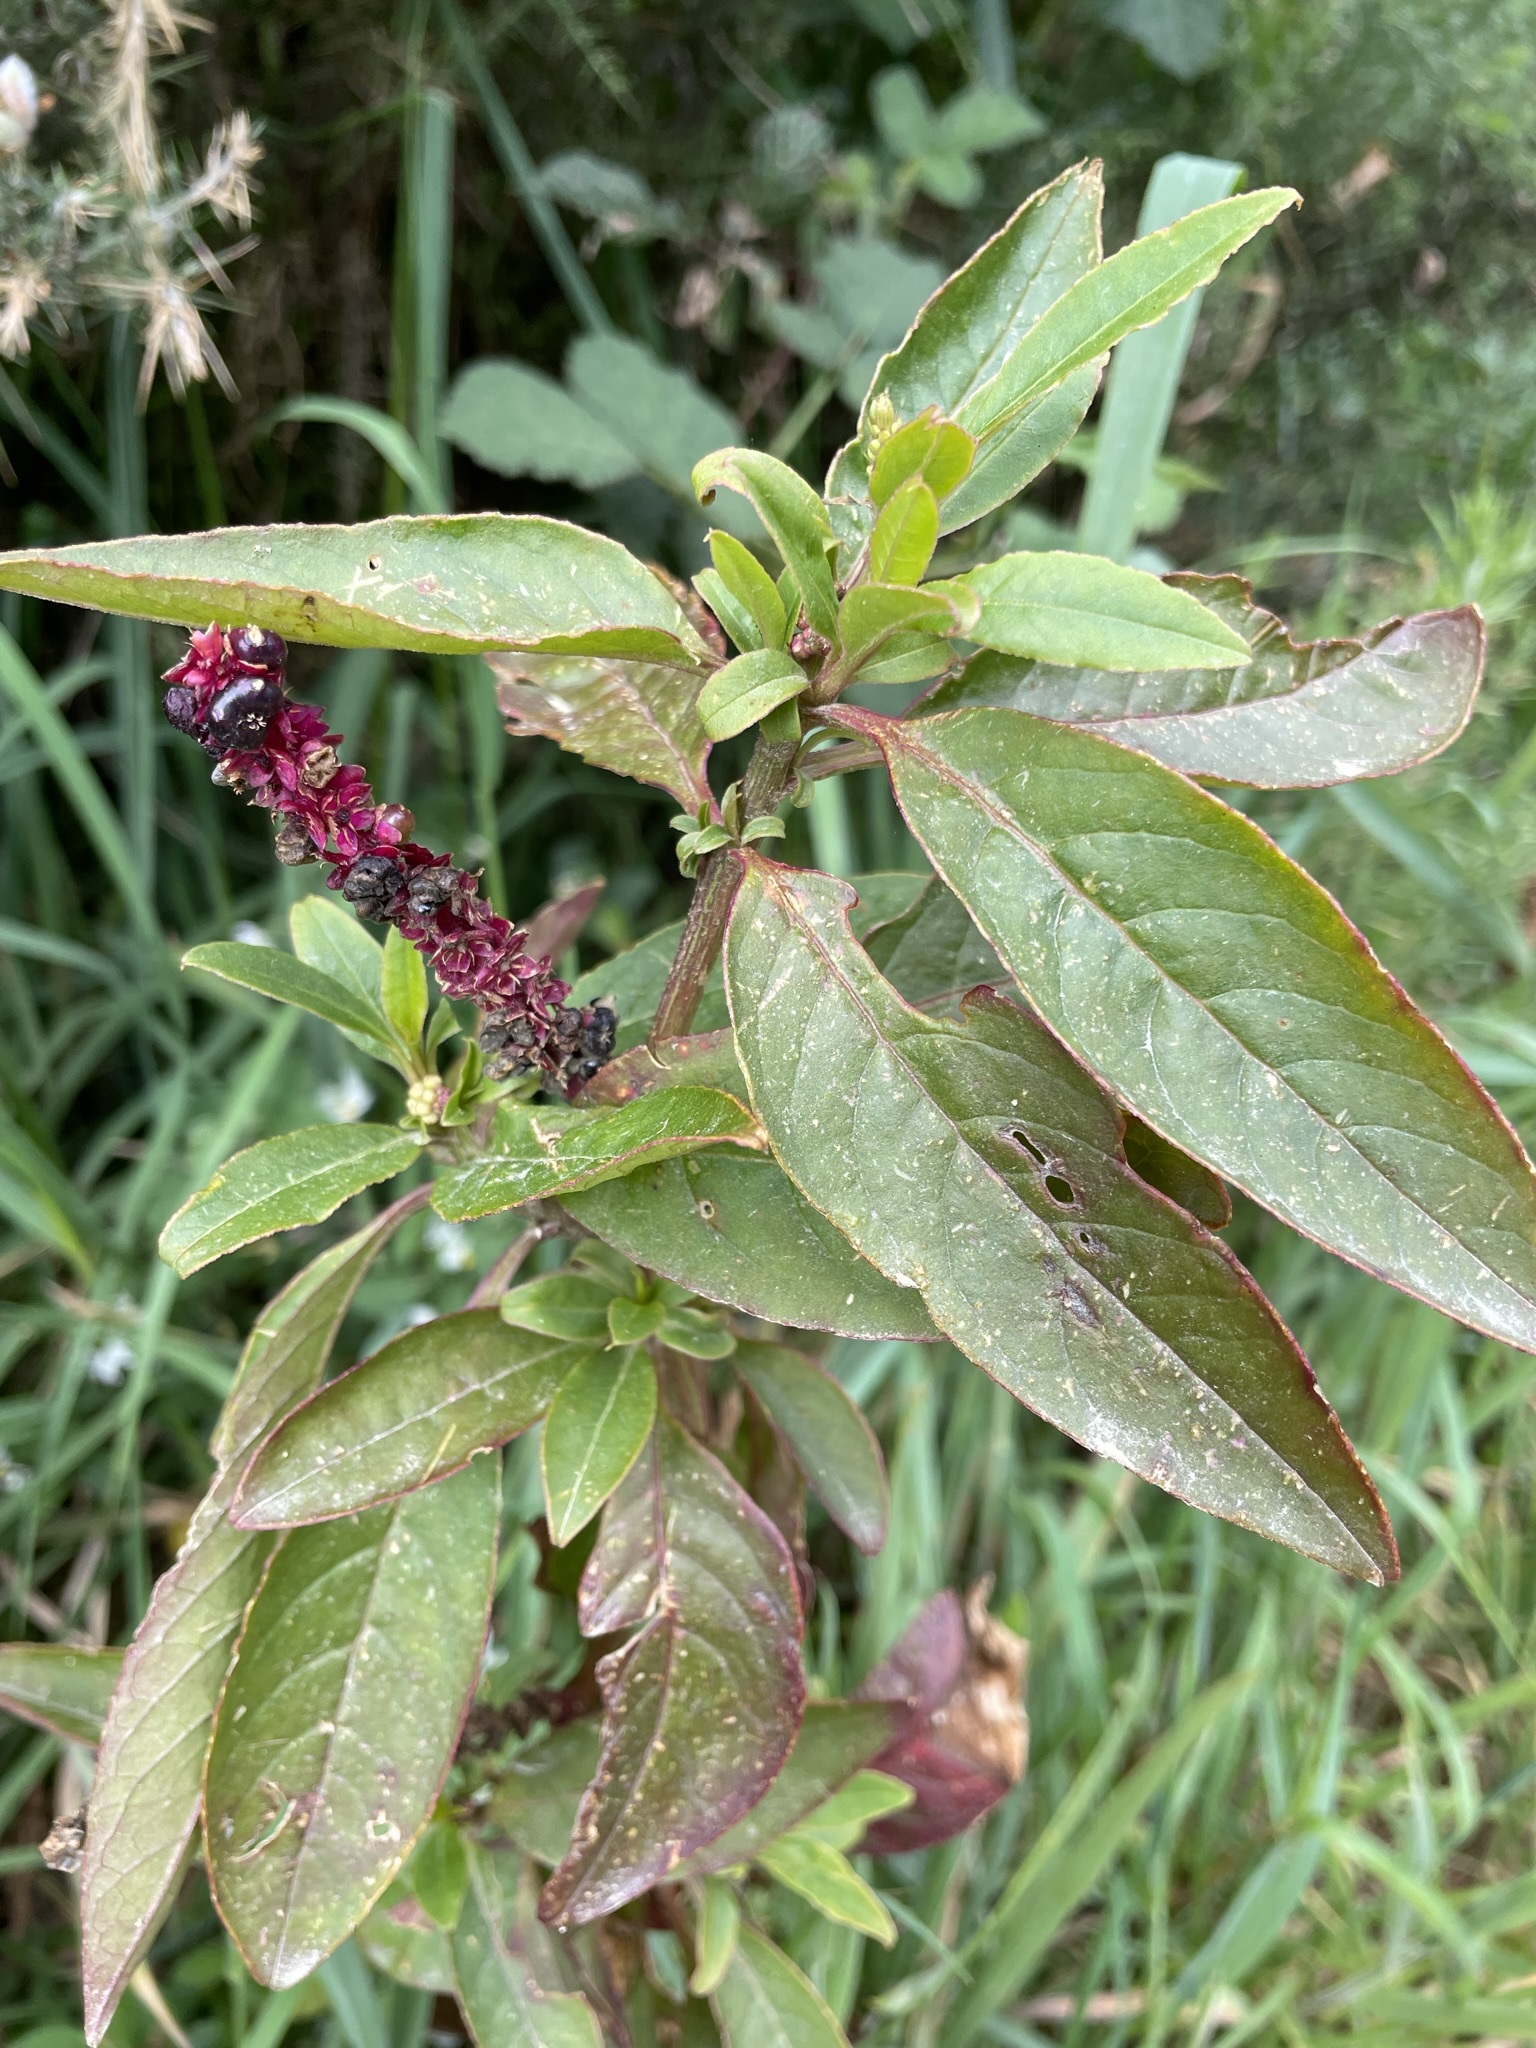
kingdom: Plantae
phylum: Tracheophyta
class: Magnoliopsida
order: Caryophyllales
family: Phytolaccaceae
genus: Phytolacca
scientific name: Phytolacca icosandra
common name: Button pokeweed
